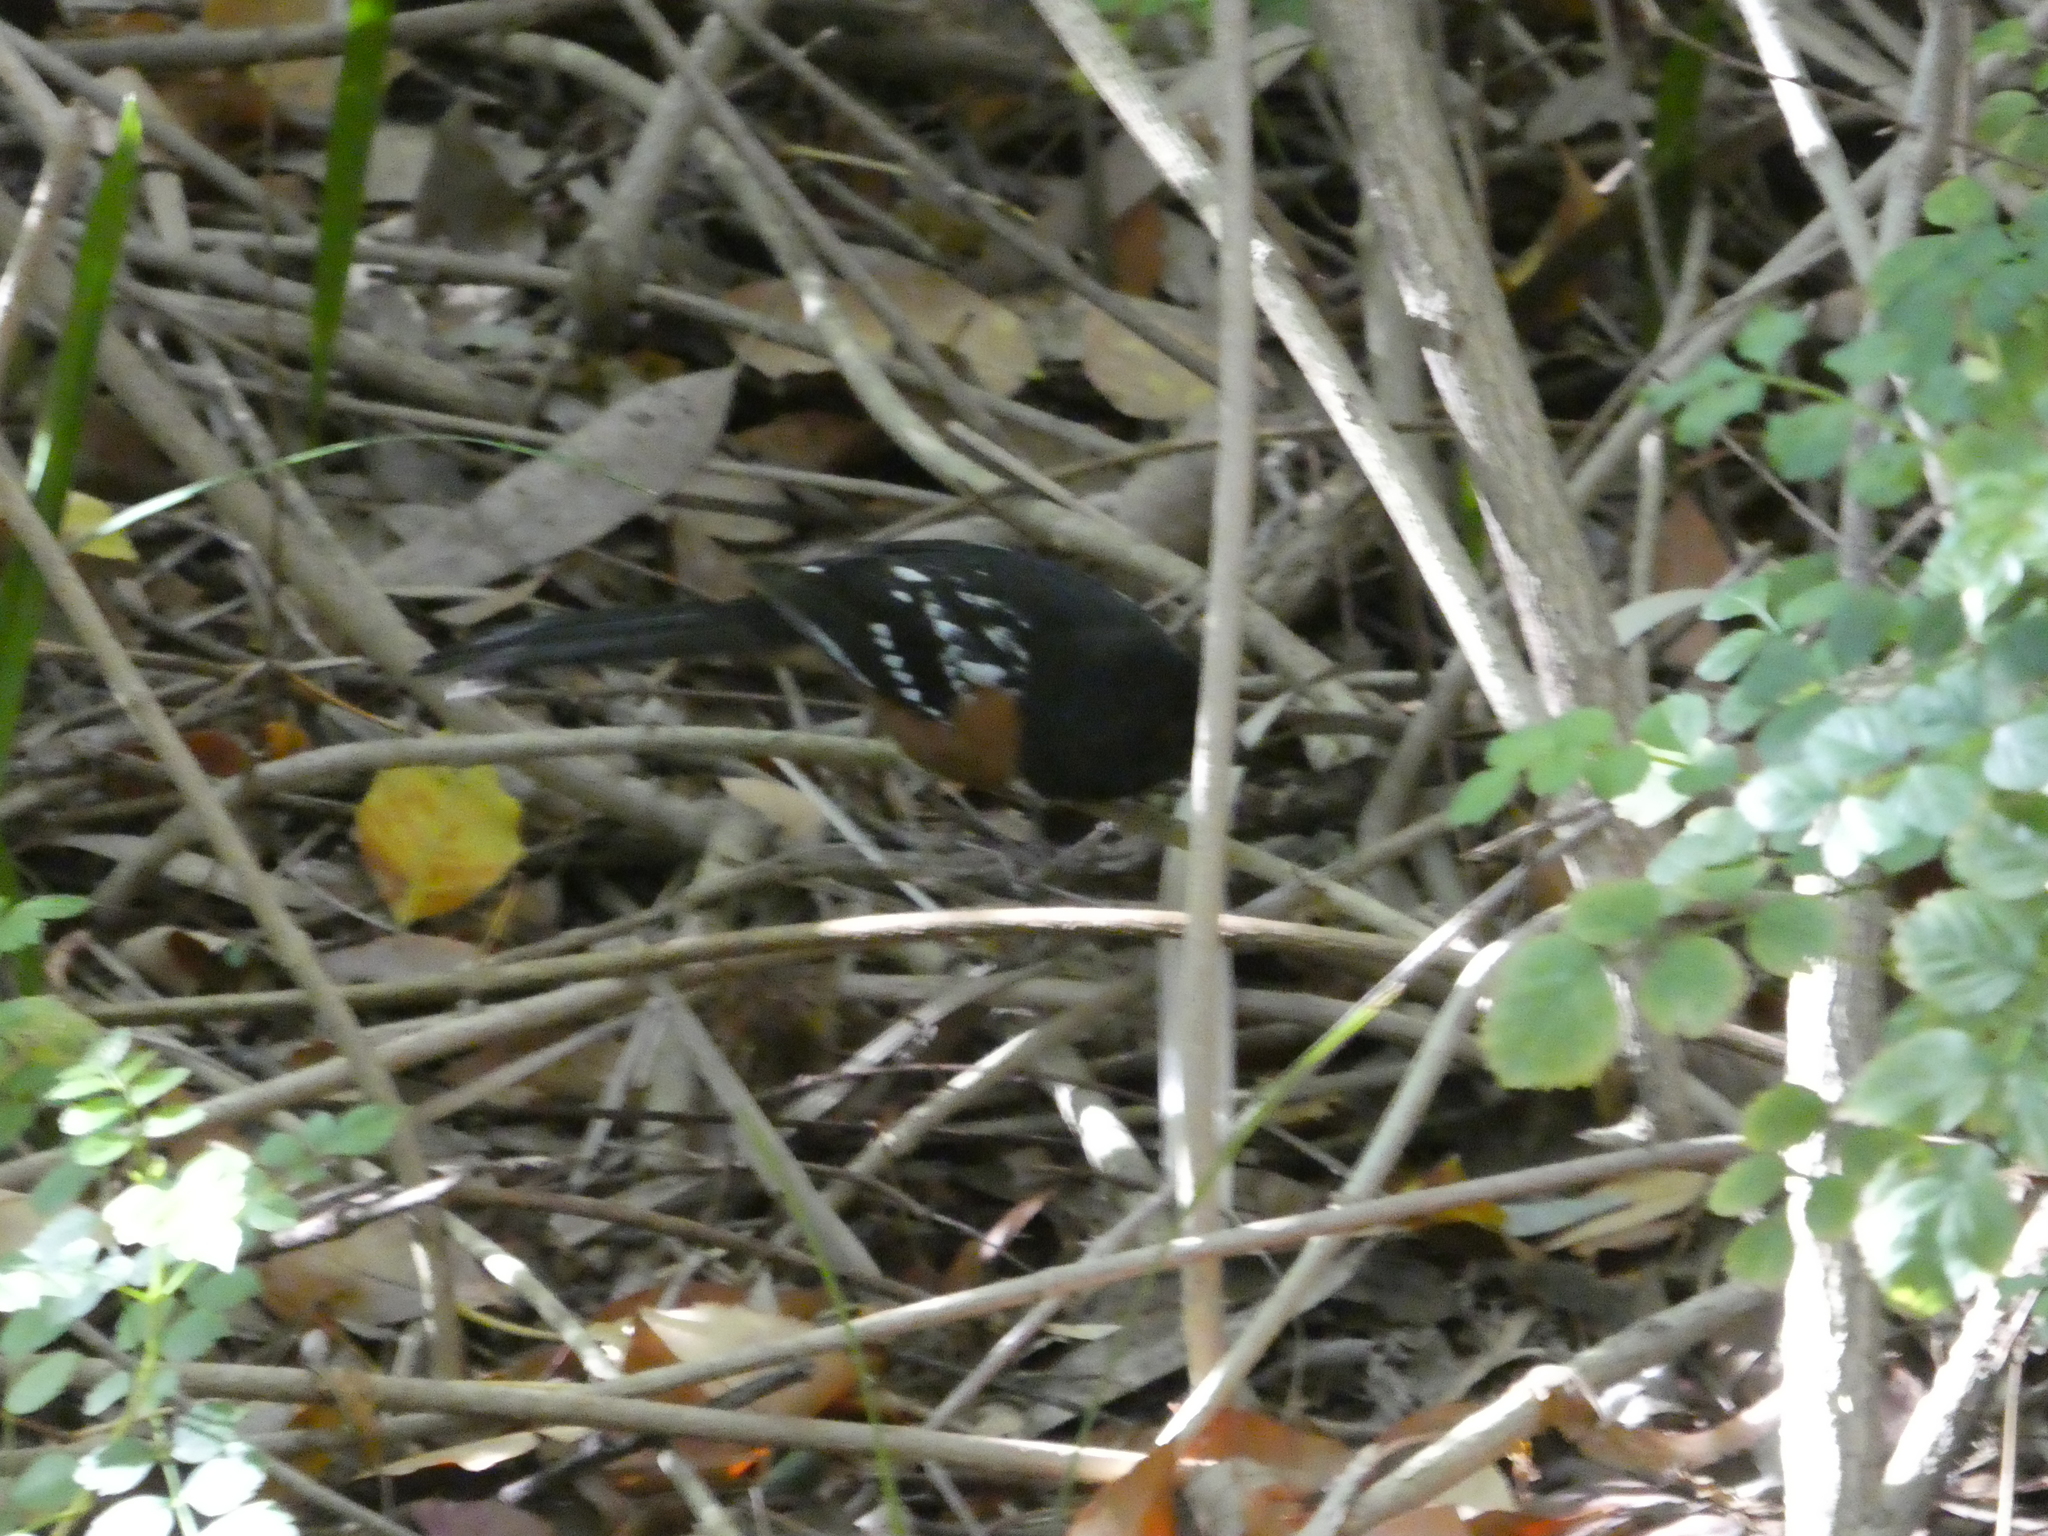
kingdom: Animalia
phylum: Chordata
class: Aves
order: Passeriformes
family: Passerellidae
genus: Pipilo
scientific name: Pipilo maculatus
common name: Spotted towhee
